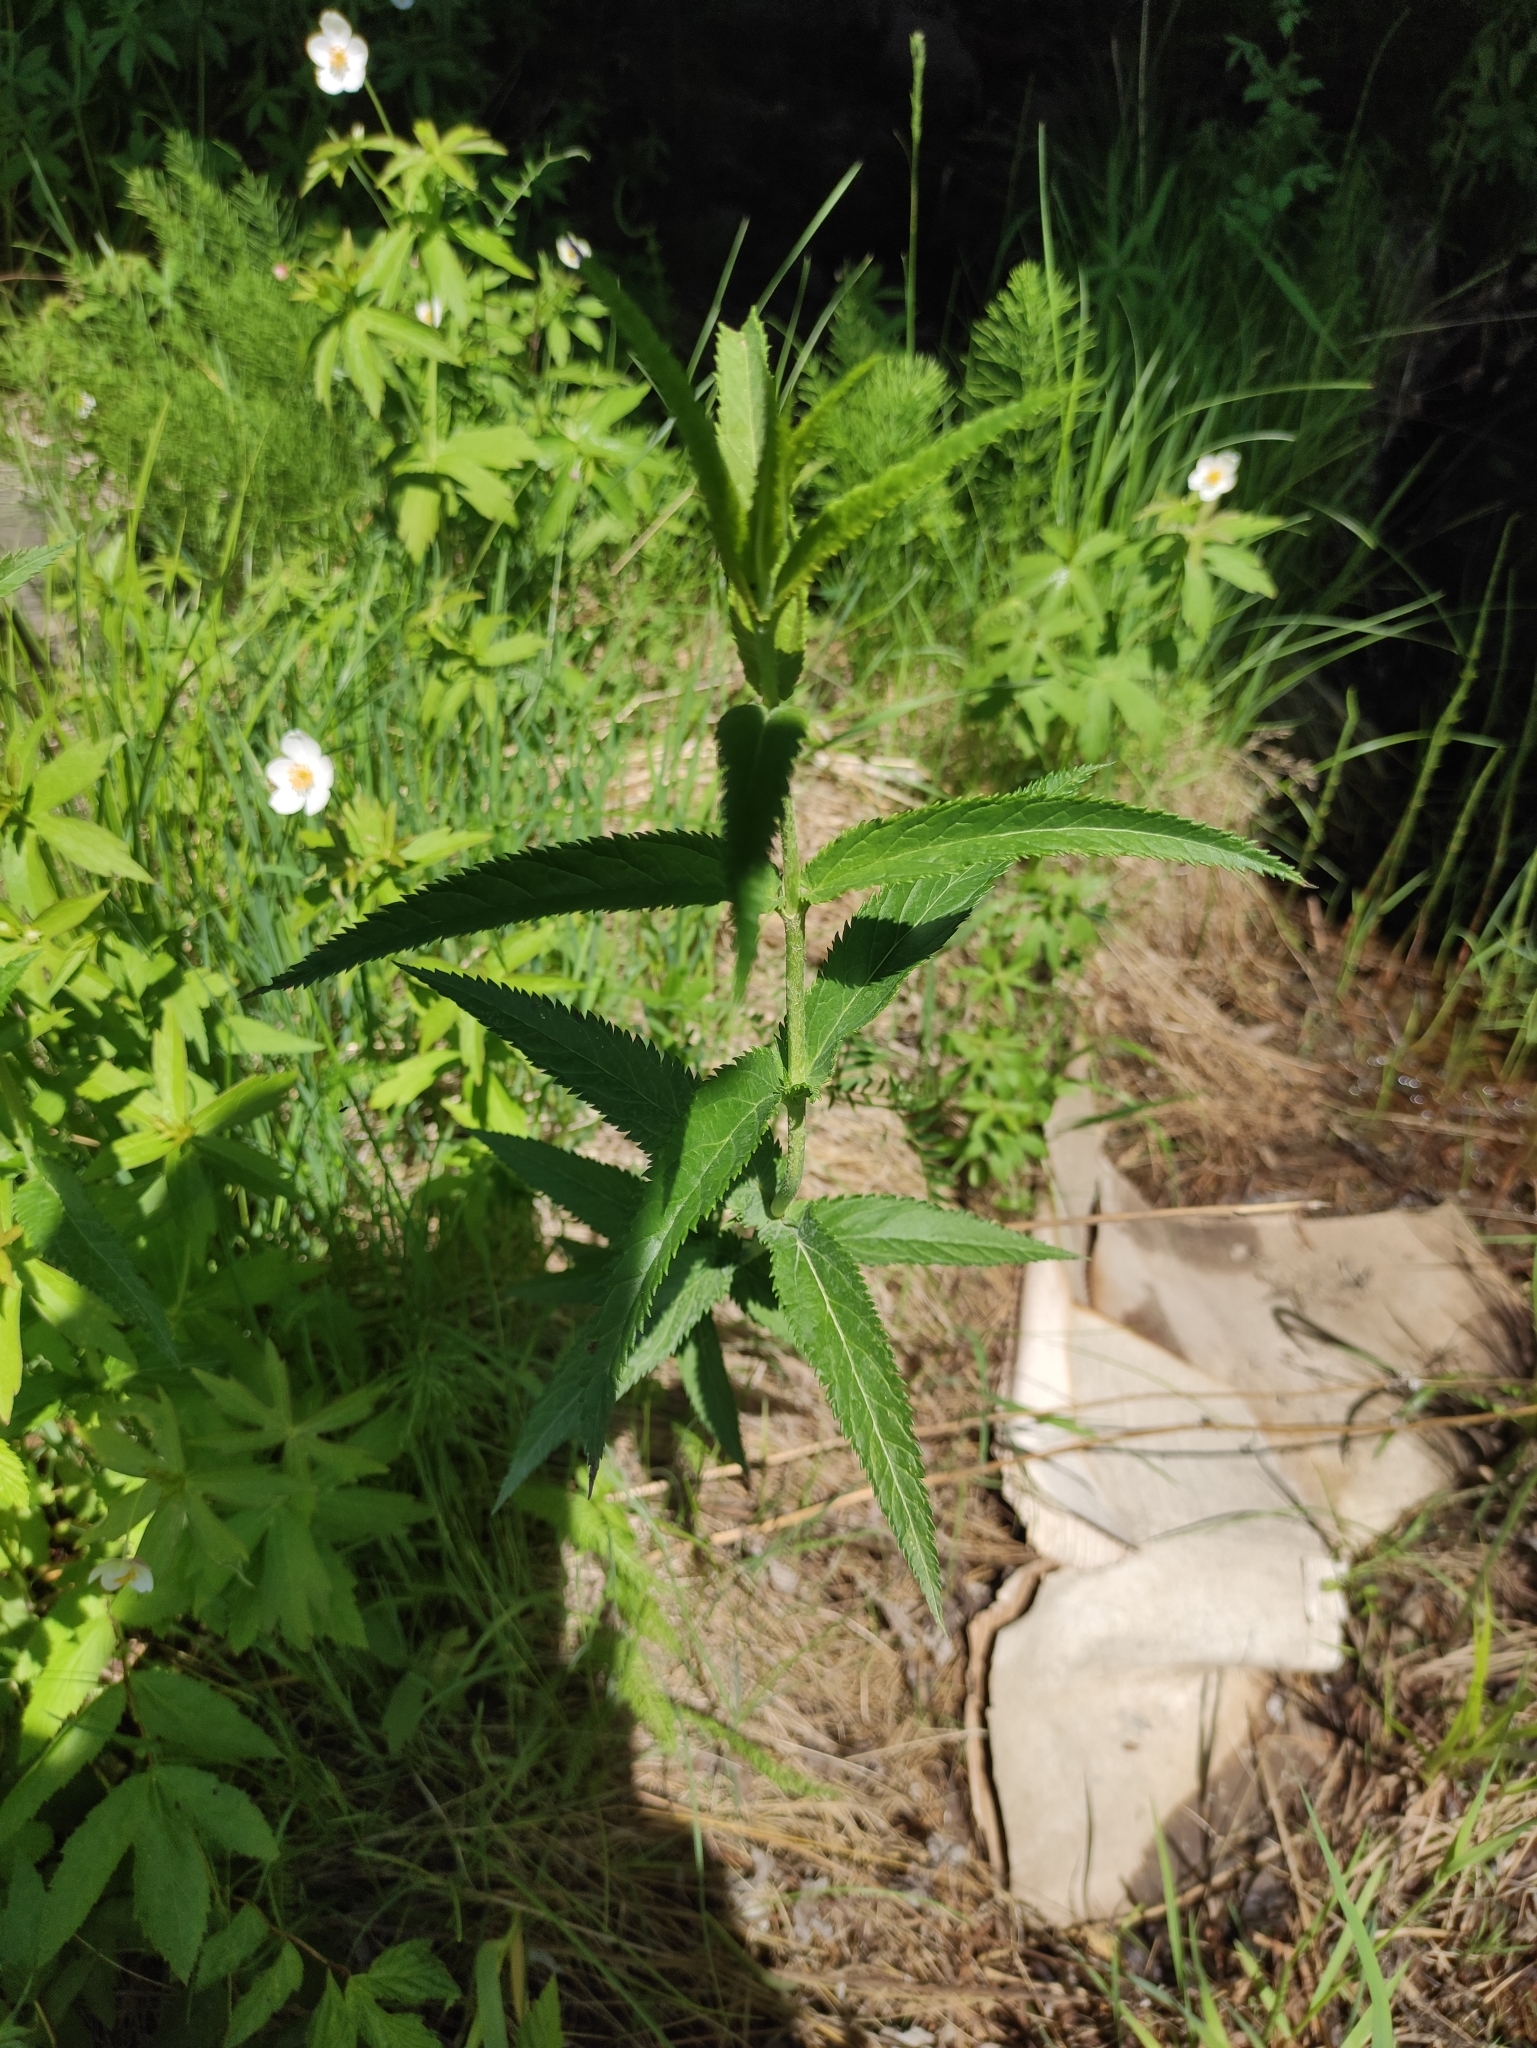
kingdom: Plantae
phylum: Tracheophyta
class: Magnoliopsida
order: Lamiales
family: Plantaginaceae
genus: Veronica
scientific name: Veronica longifolia
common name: Garden speedwell
